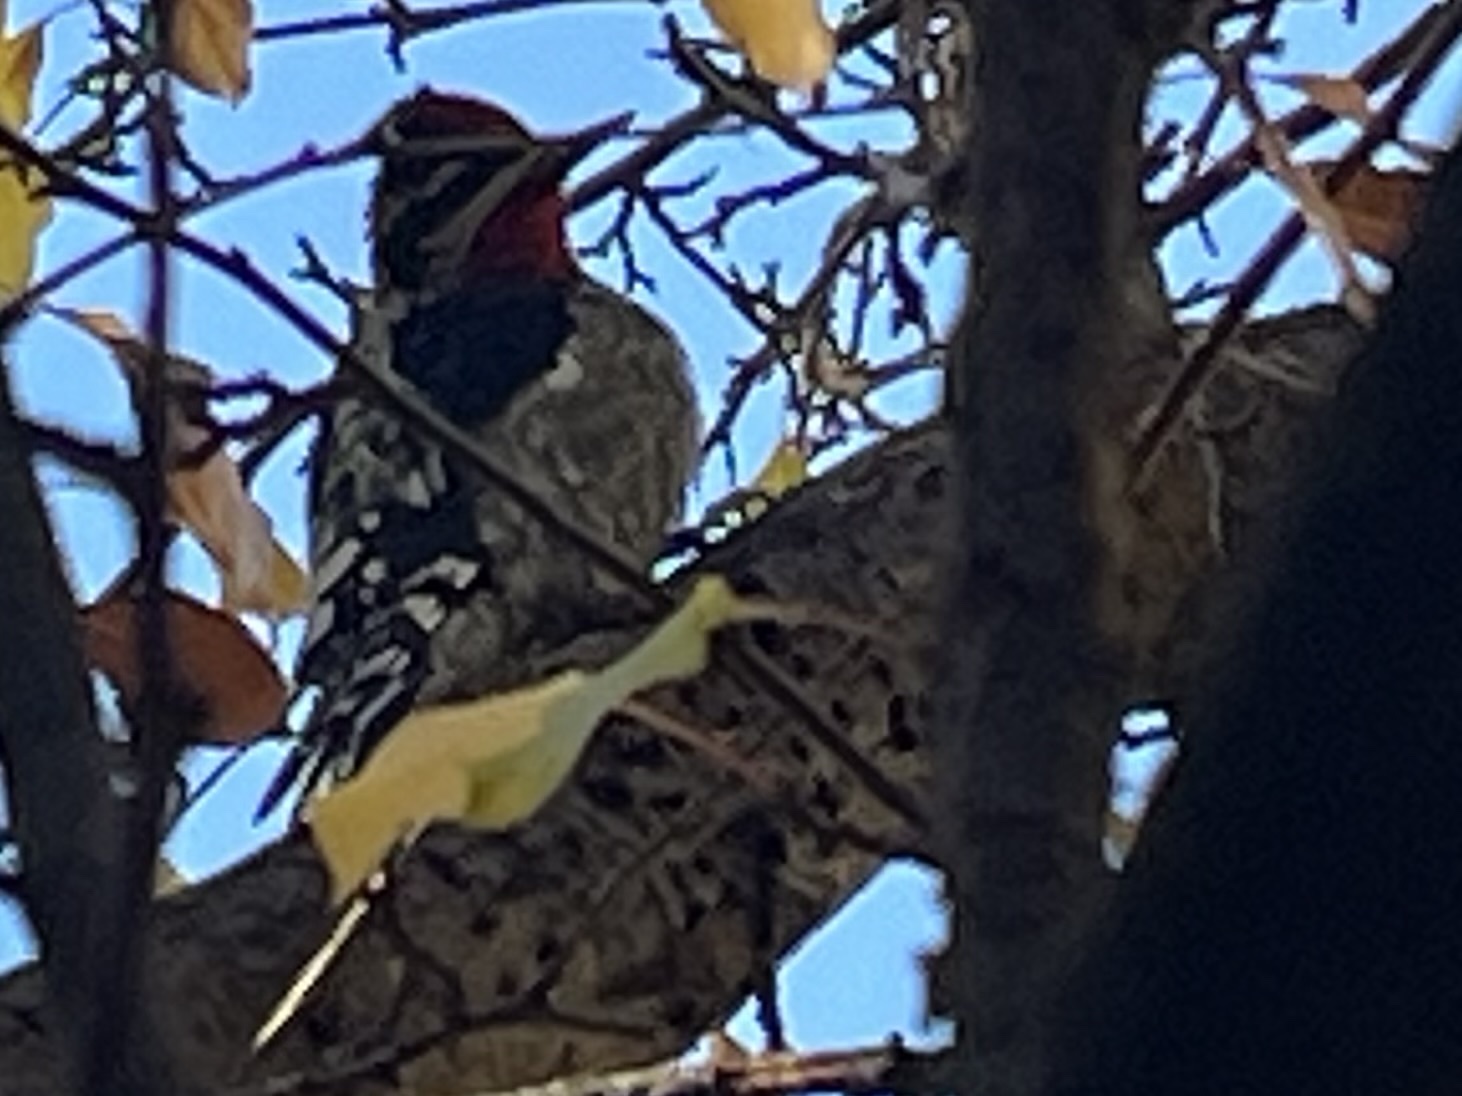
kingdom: Animalia
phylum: Chordata
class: Aves
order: Piciformes
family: Picidae
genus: Sphyrapicus
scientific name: Sphyrapicus nuchalis
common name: Red-naped sapsucker
